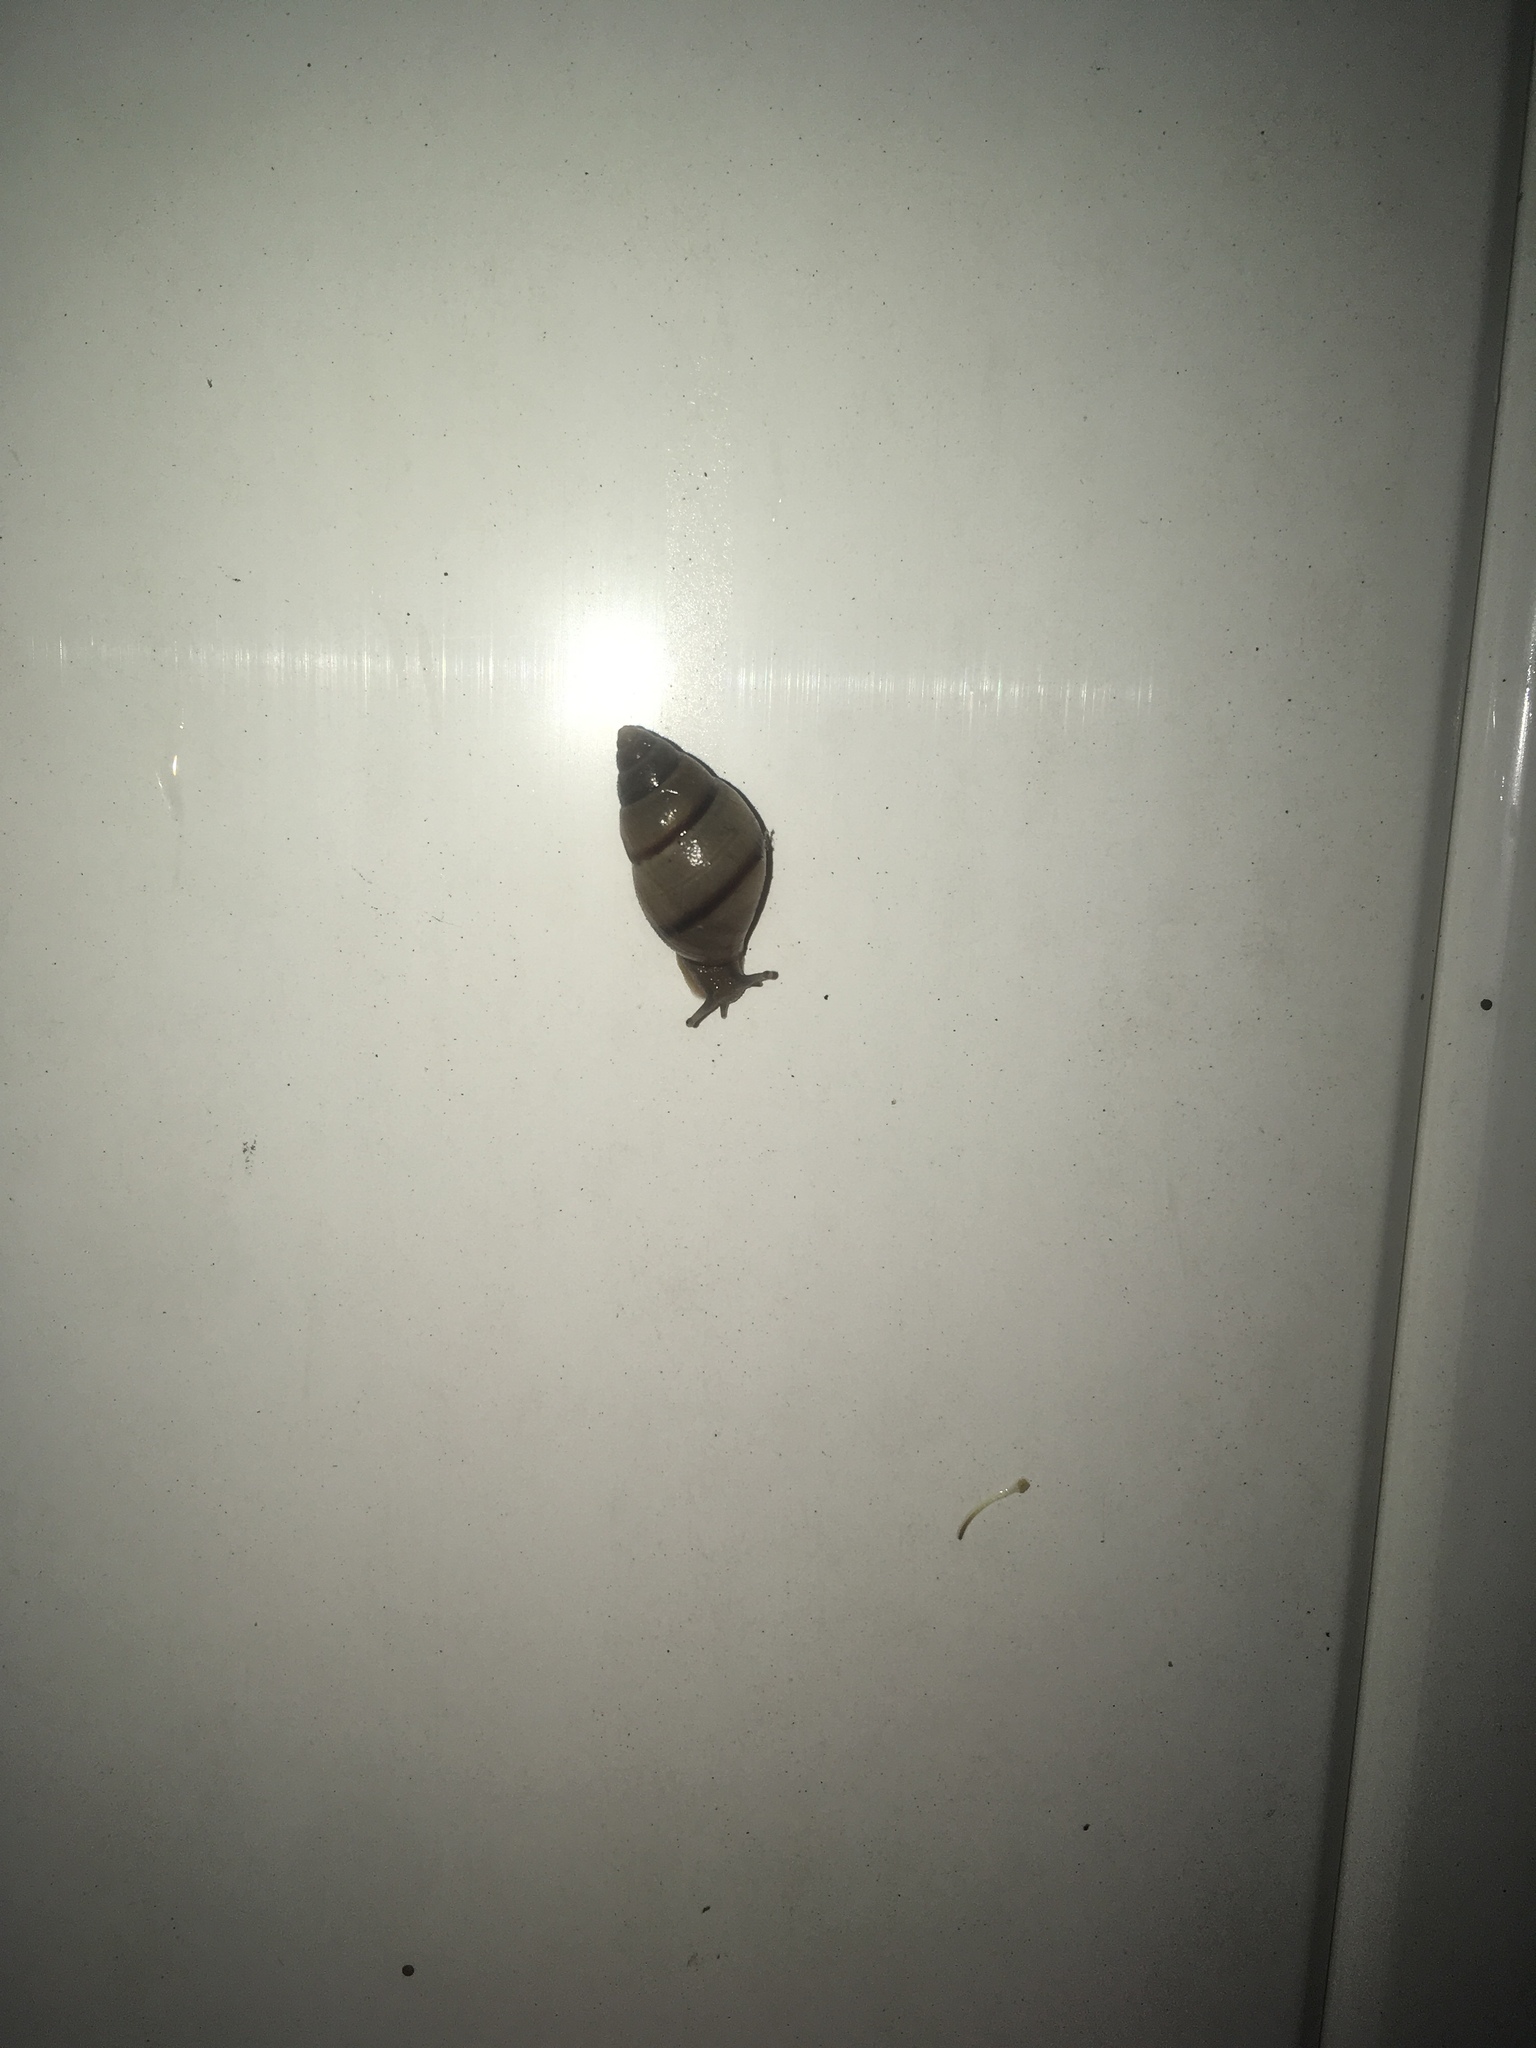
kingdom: Animalia
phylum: Mollusca
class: Gastropoda
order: Stylommatophora
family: Bulimulidae
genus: Bulimulus
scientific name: Bulimulus guadalupensis
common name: West indian bulimulus
